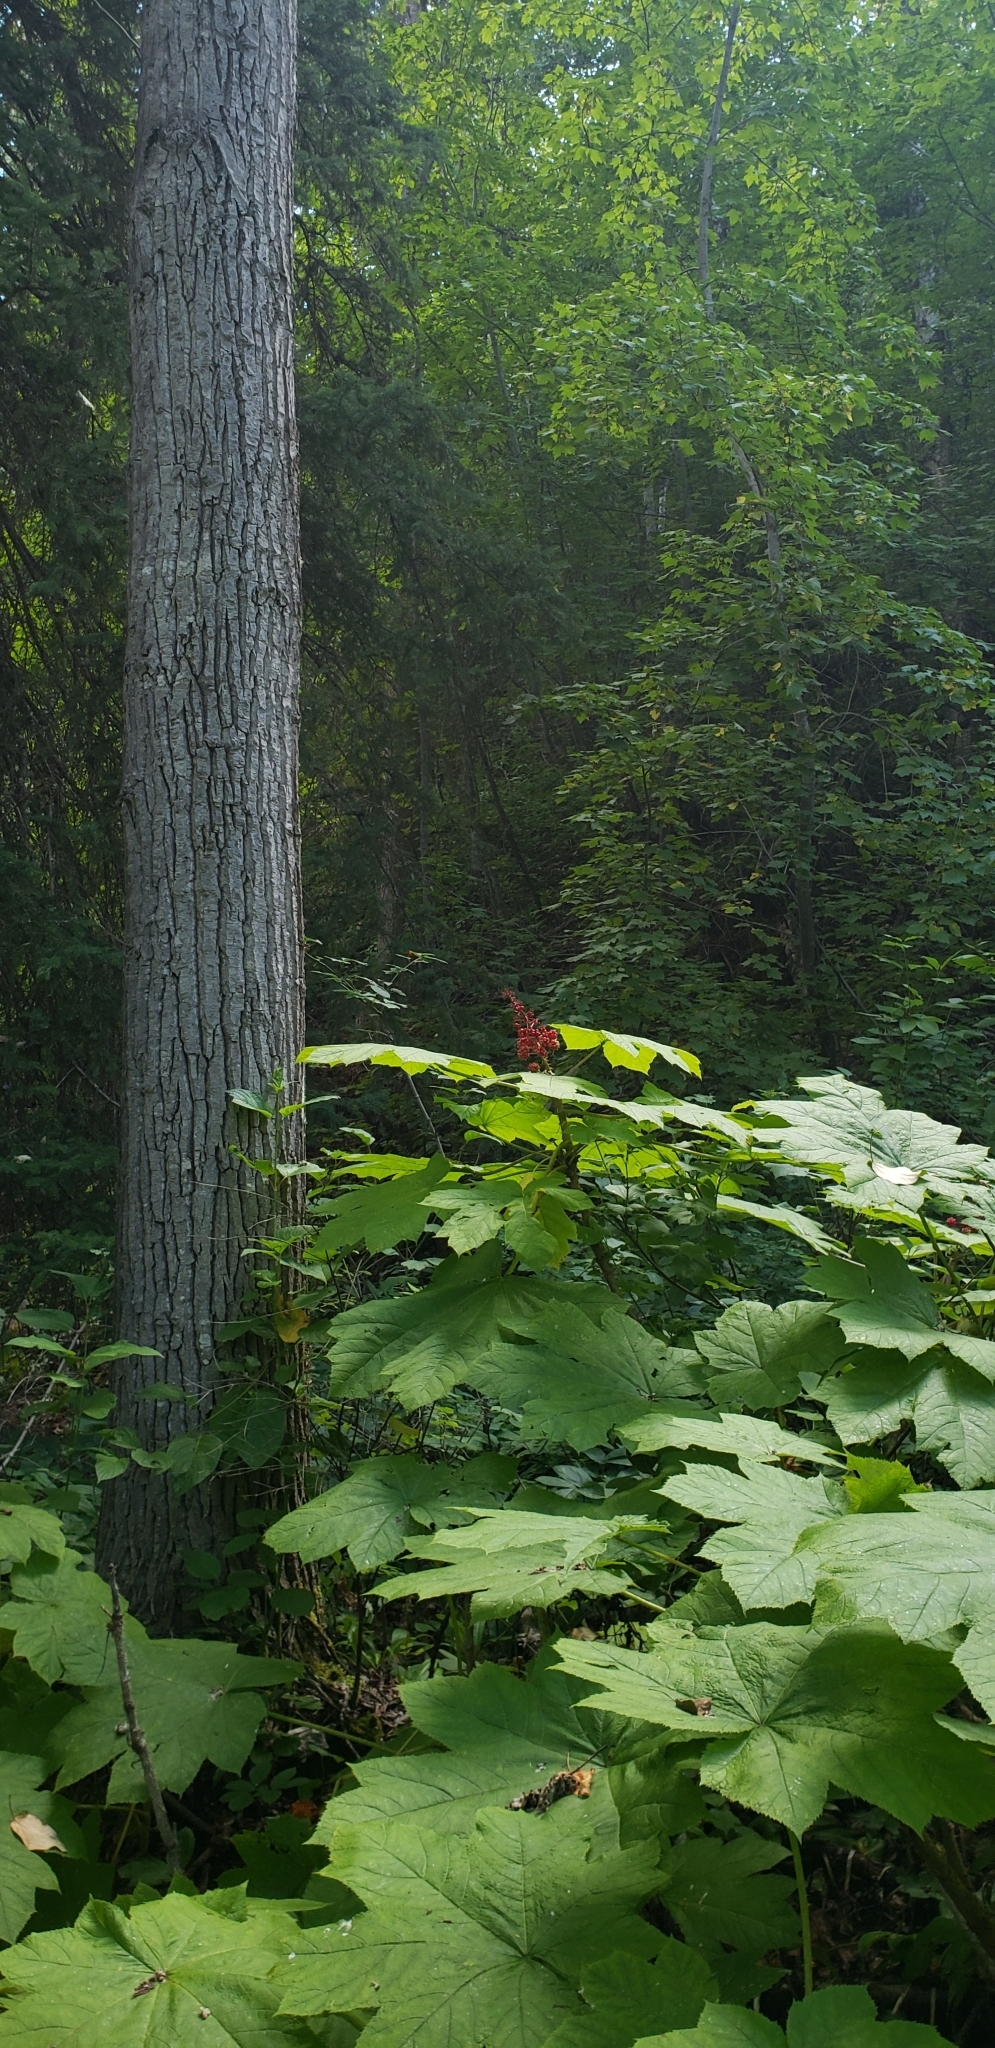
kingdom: Plantae
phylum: Tracheophyta
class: Magnoliopsida
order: Apiales
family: Araliaceae
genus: Oplopanax
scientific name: Oplopanax horridus
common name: Devil's walking-stick
